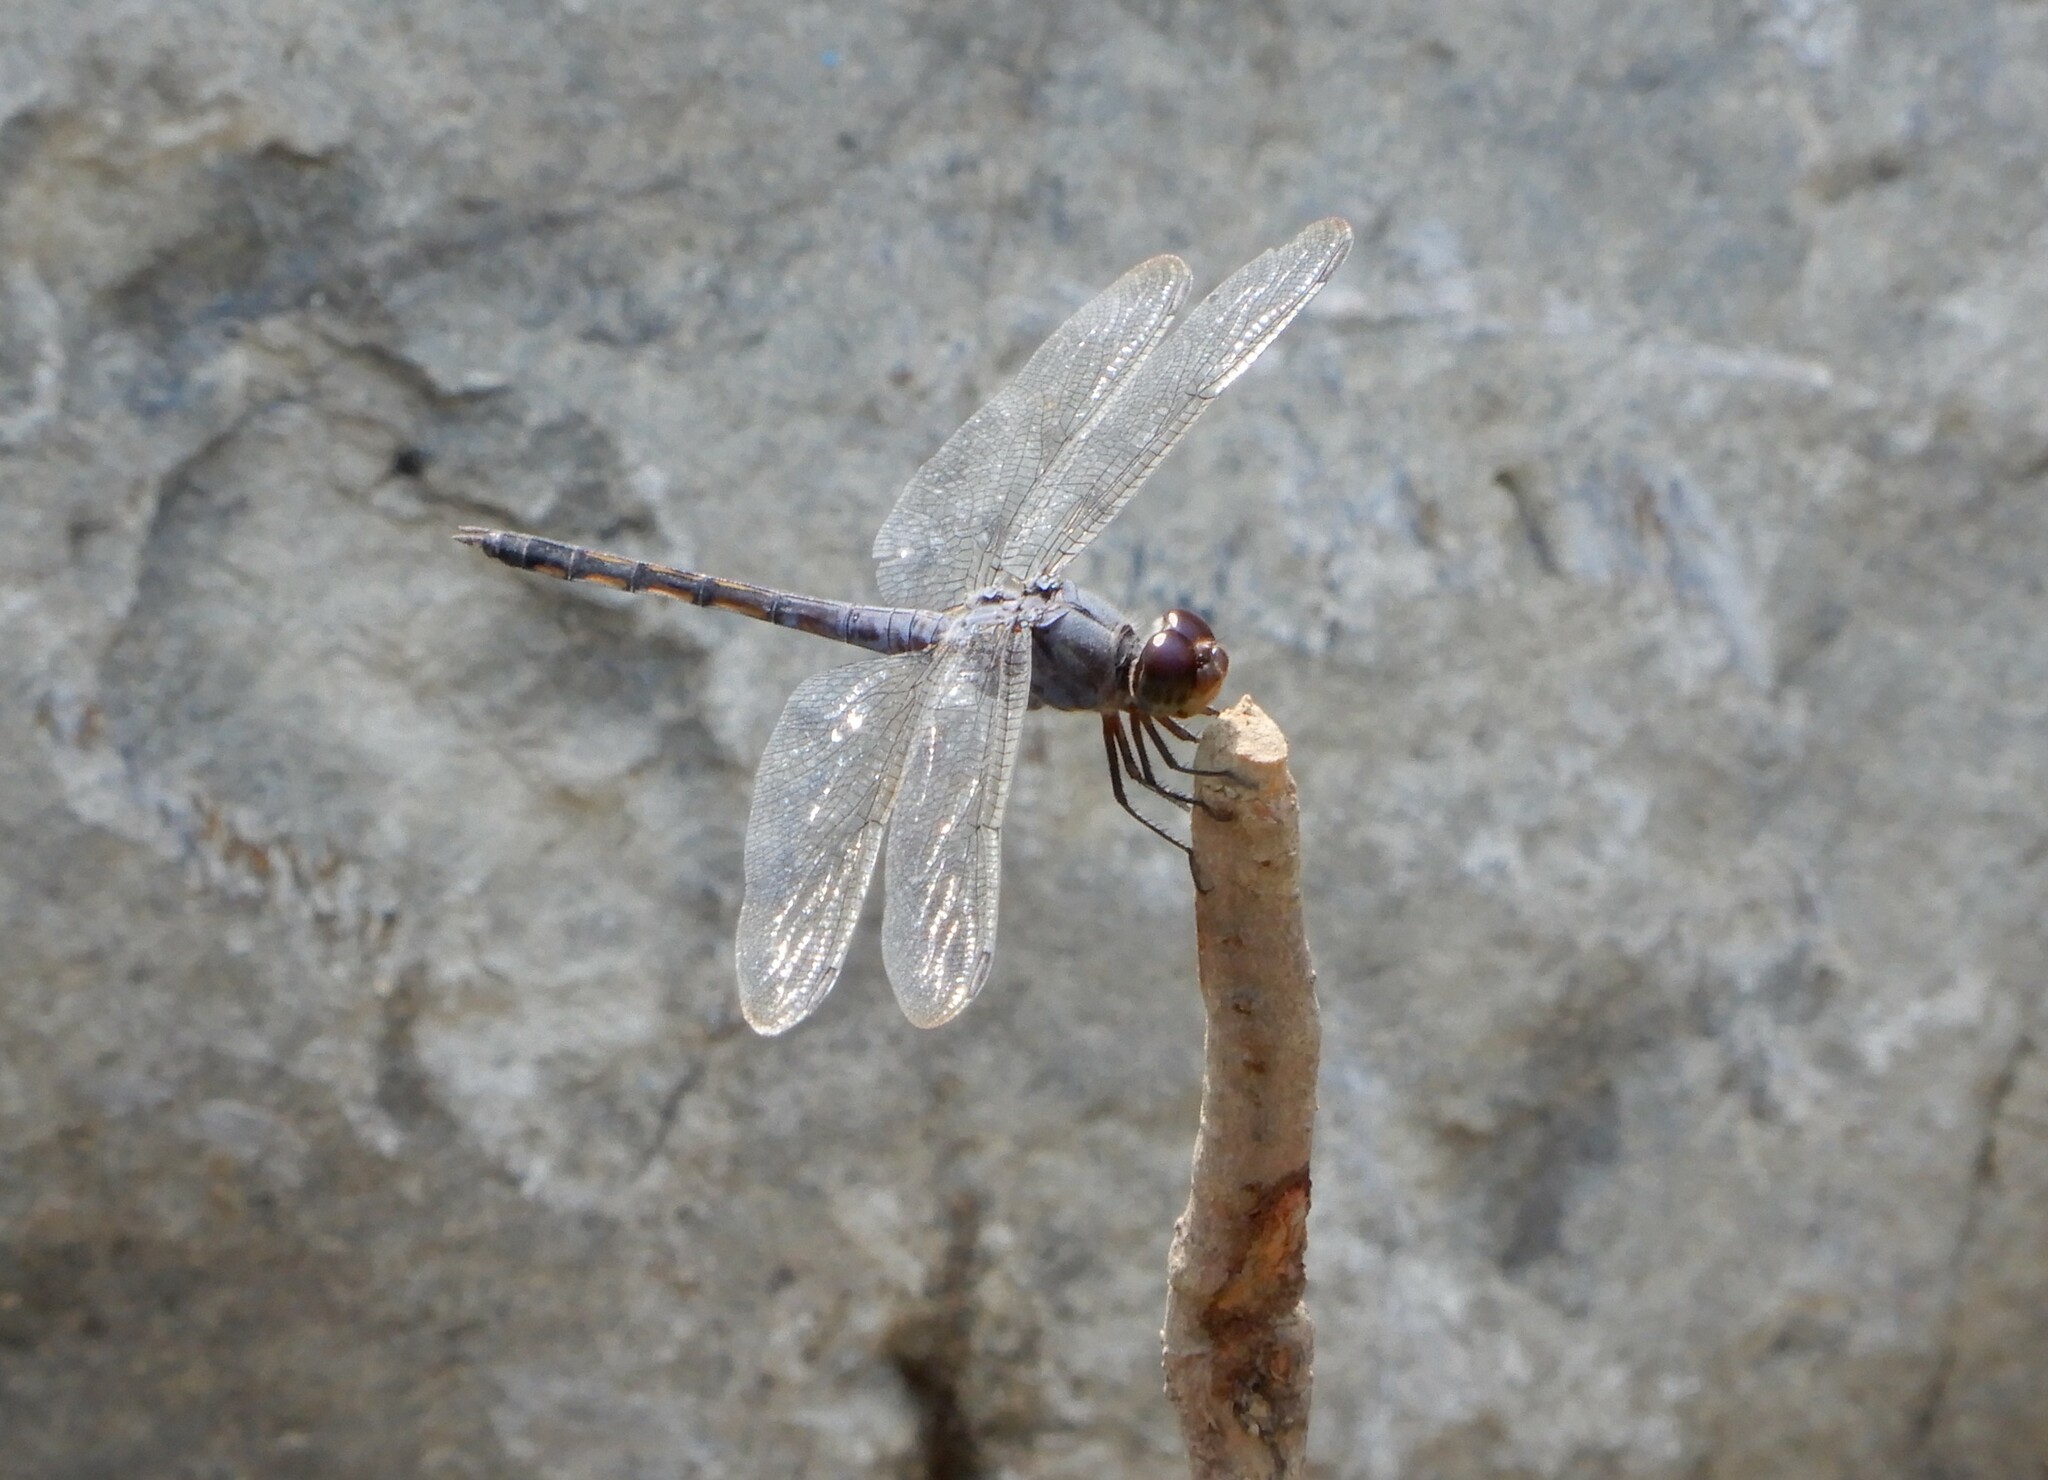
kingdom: Animalia
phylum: Arthropoda
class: Insecta
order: Odonata
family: Libellulidae
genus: Potamarcha
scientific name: Potamarcha congener
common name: Blue chaser
